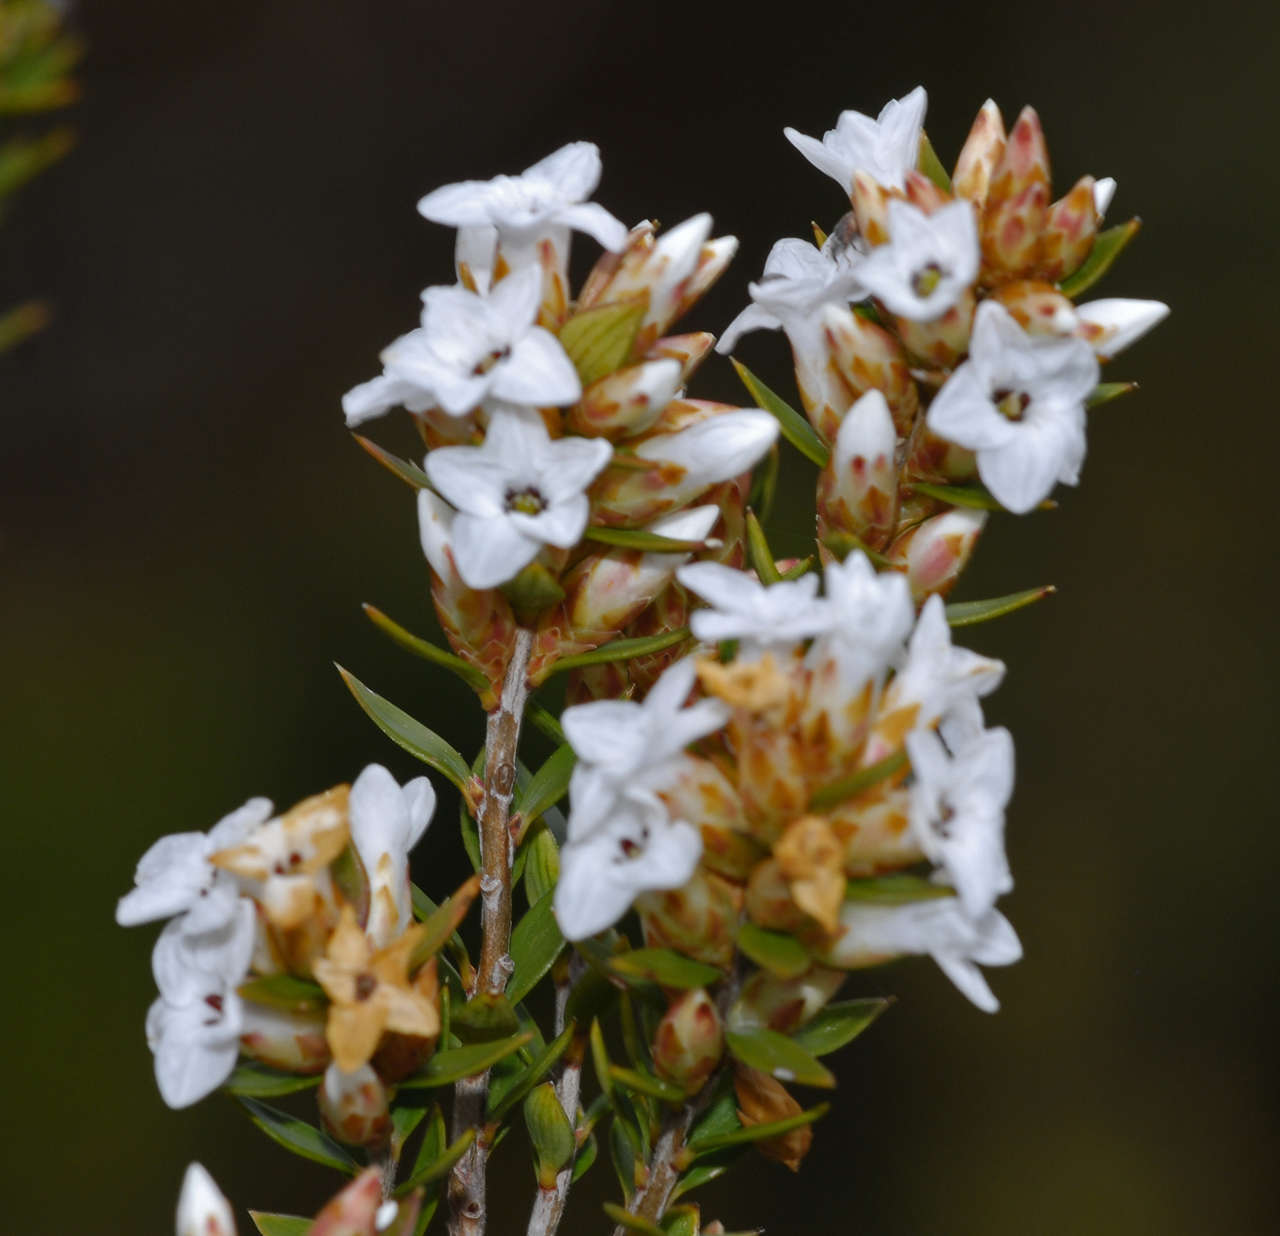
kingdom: Plantae
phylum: Tracheophyta
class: Magnoliopsida
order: Ericales
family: Ericaceae
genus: Epacris
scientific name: Epacris paludosa
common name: Swamp-heath
